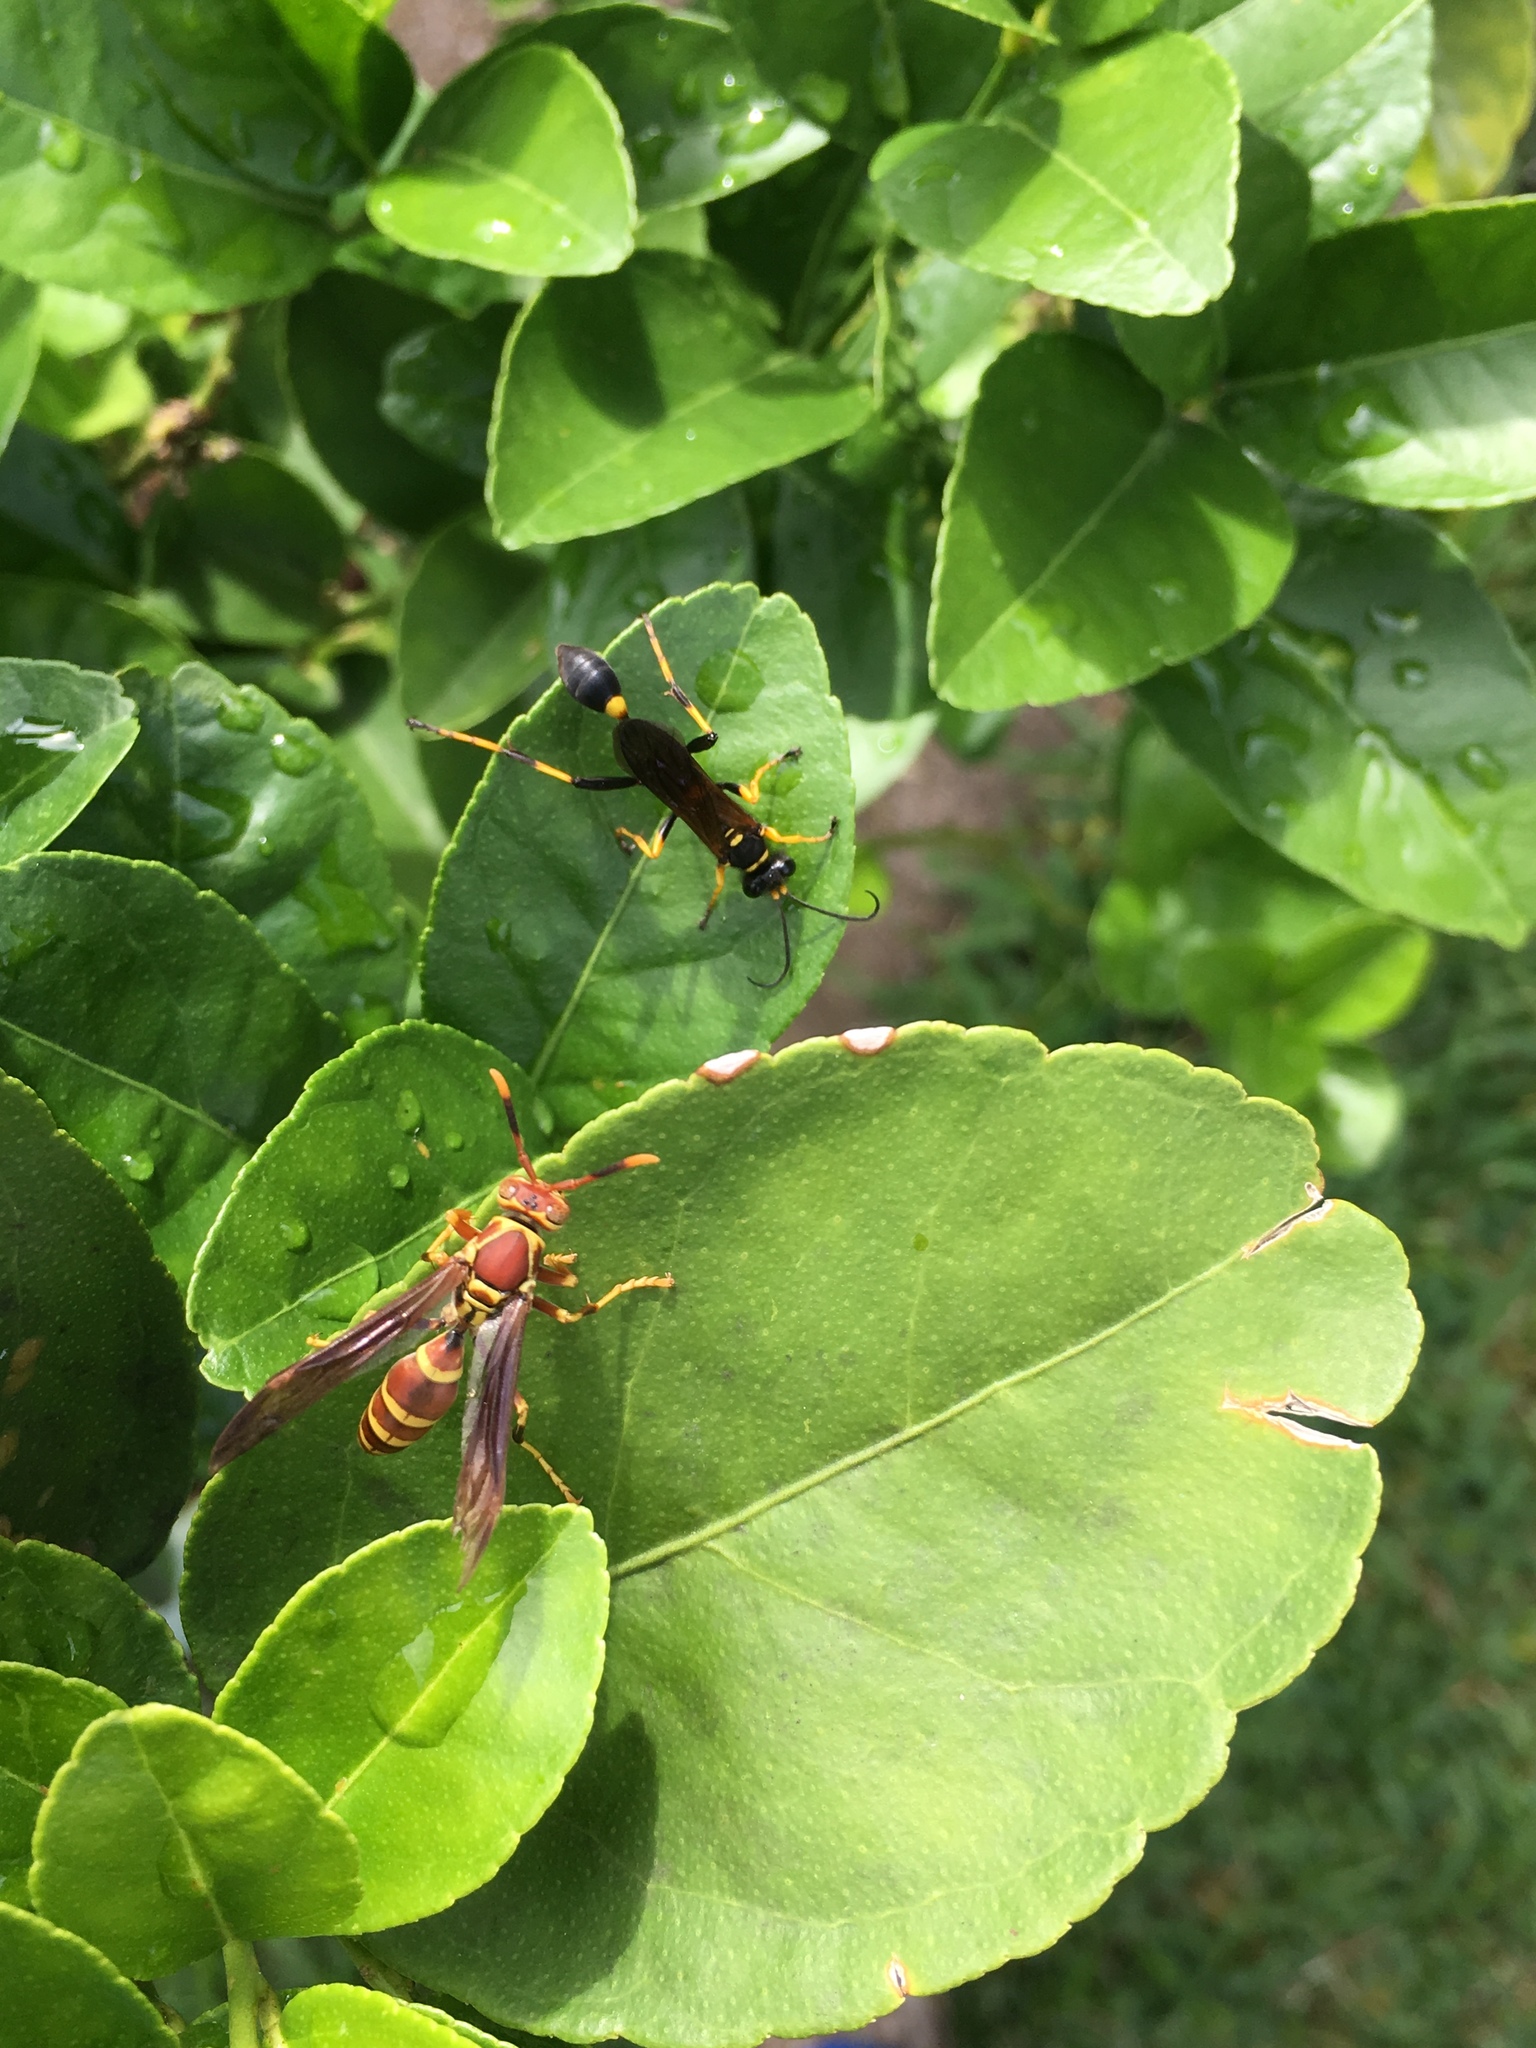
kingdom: Animalia
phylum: Arthropoda
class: Insecta
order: Hymenoptera
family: Sphecidae
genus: Sceliphron
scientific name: Sceliphron caementarium
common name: Mud dauber
